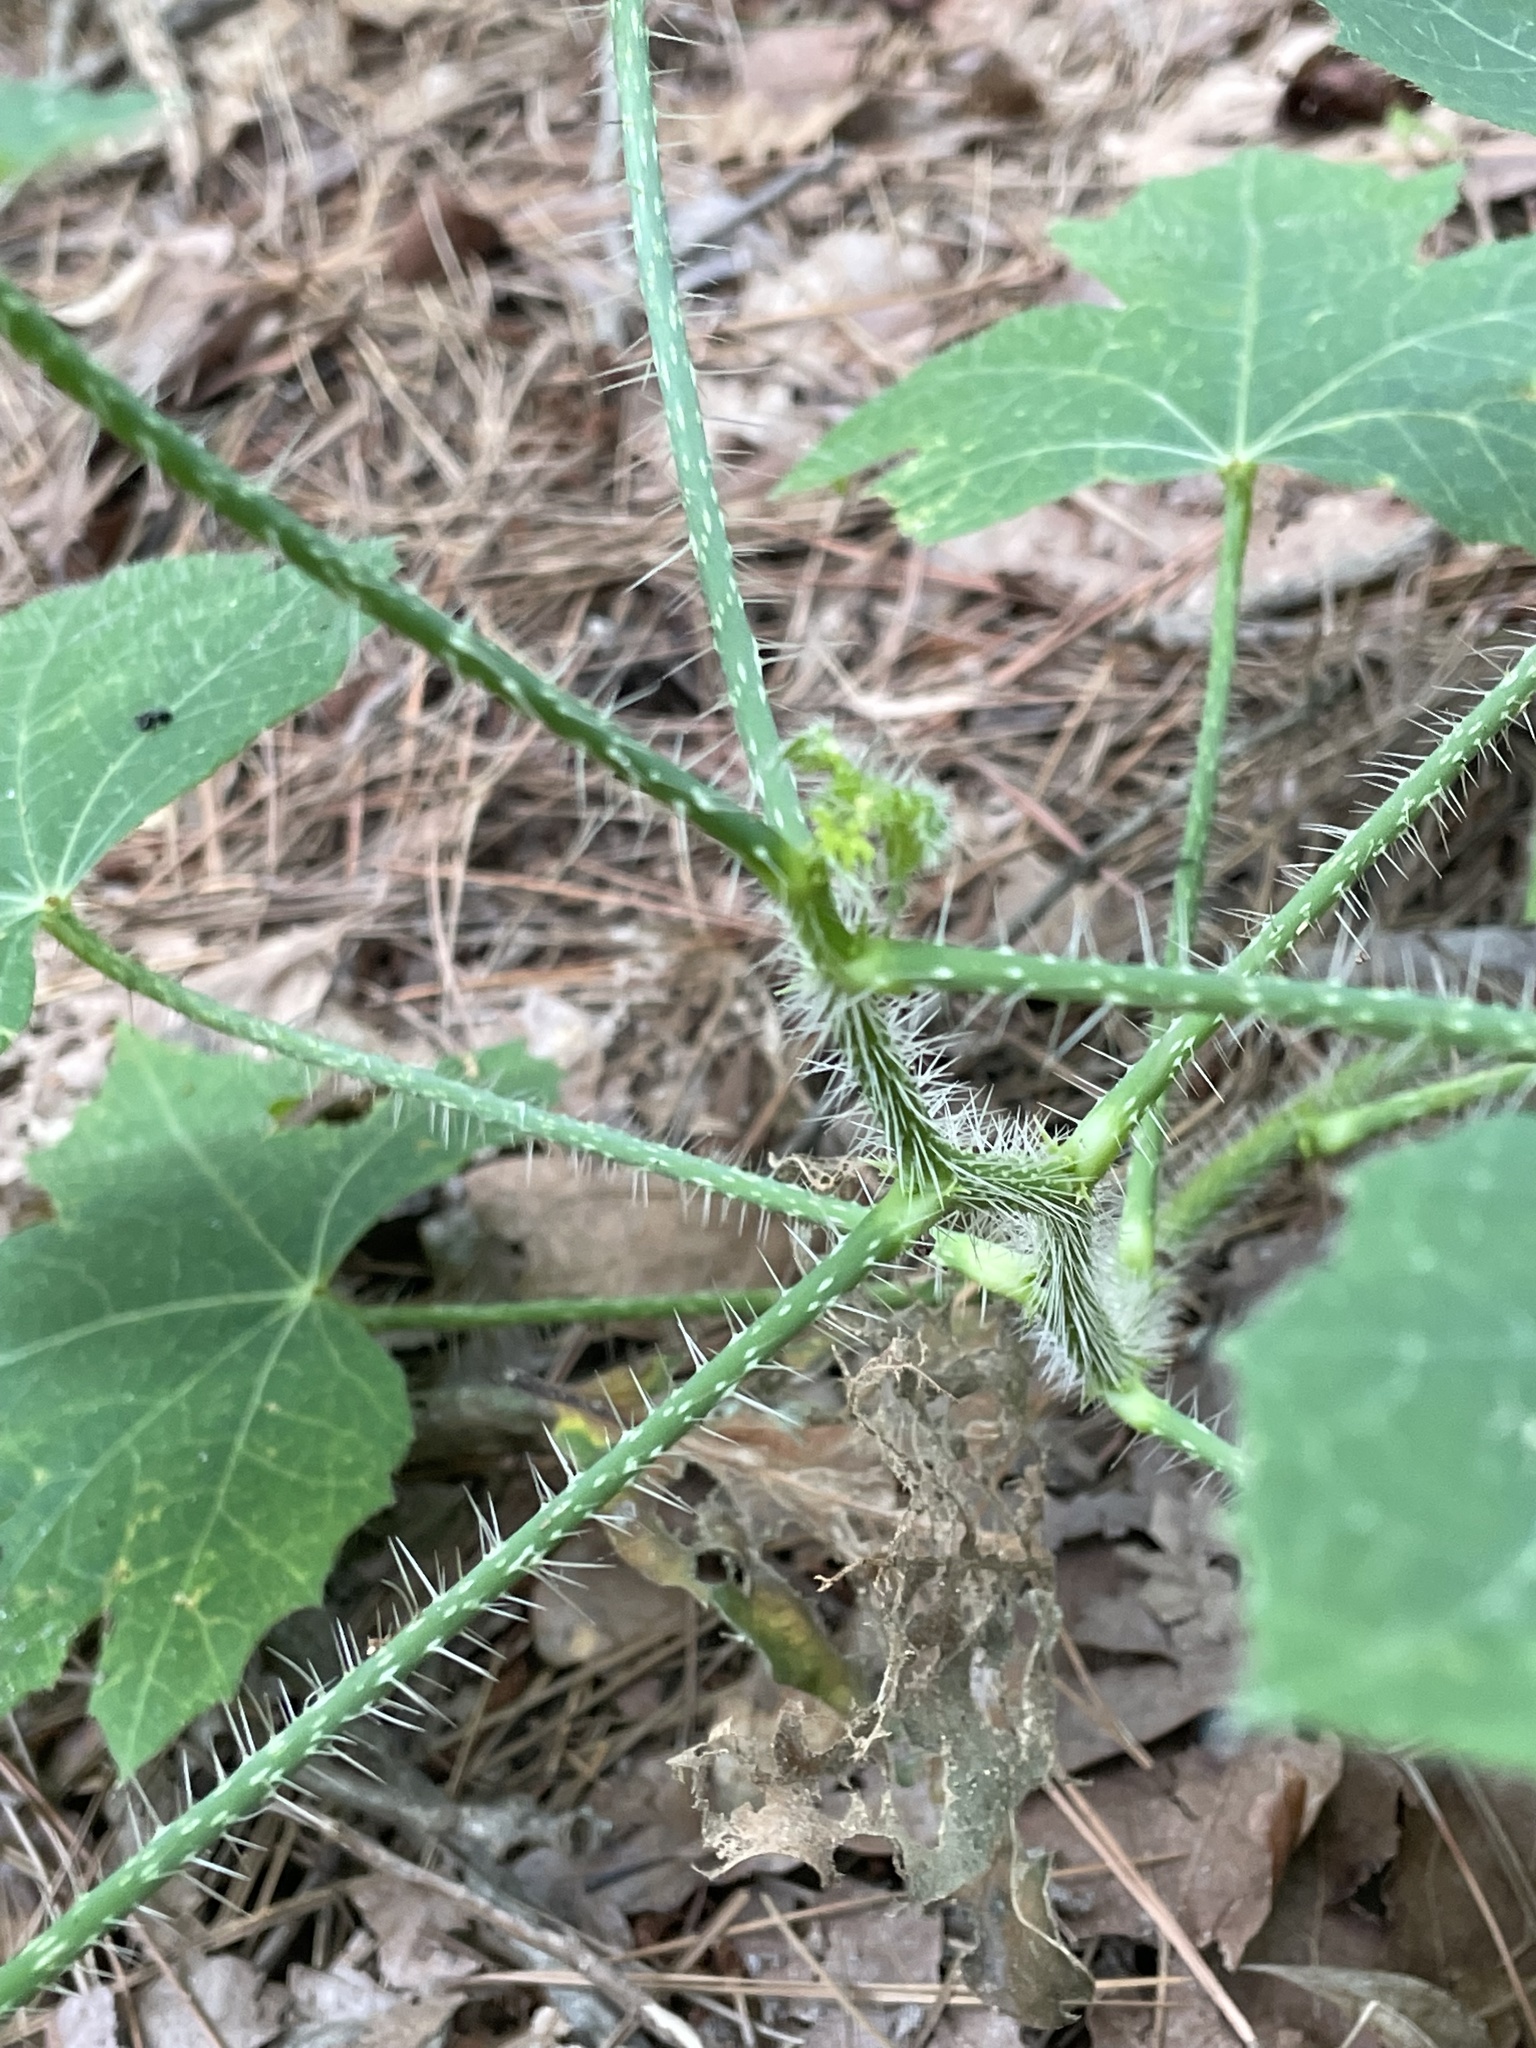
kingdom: Plantae
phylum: Tracheophyta
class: Magnoliopsida
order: Malpighiales
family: Euphorbiaceae
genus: Cnidoscolus
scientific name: Cnidoscolus texanus
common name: Texas bull-nettle
